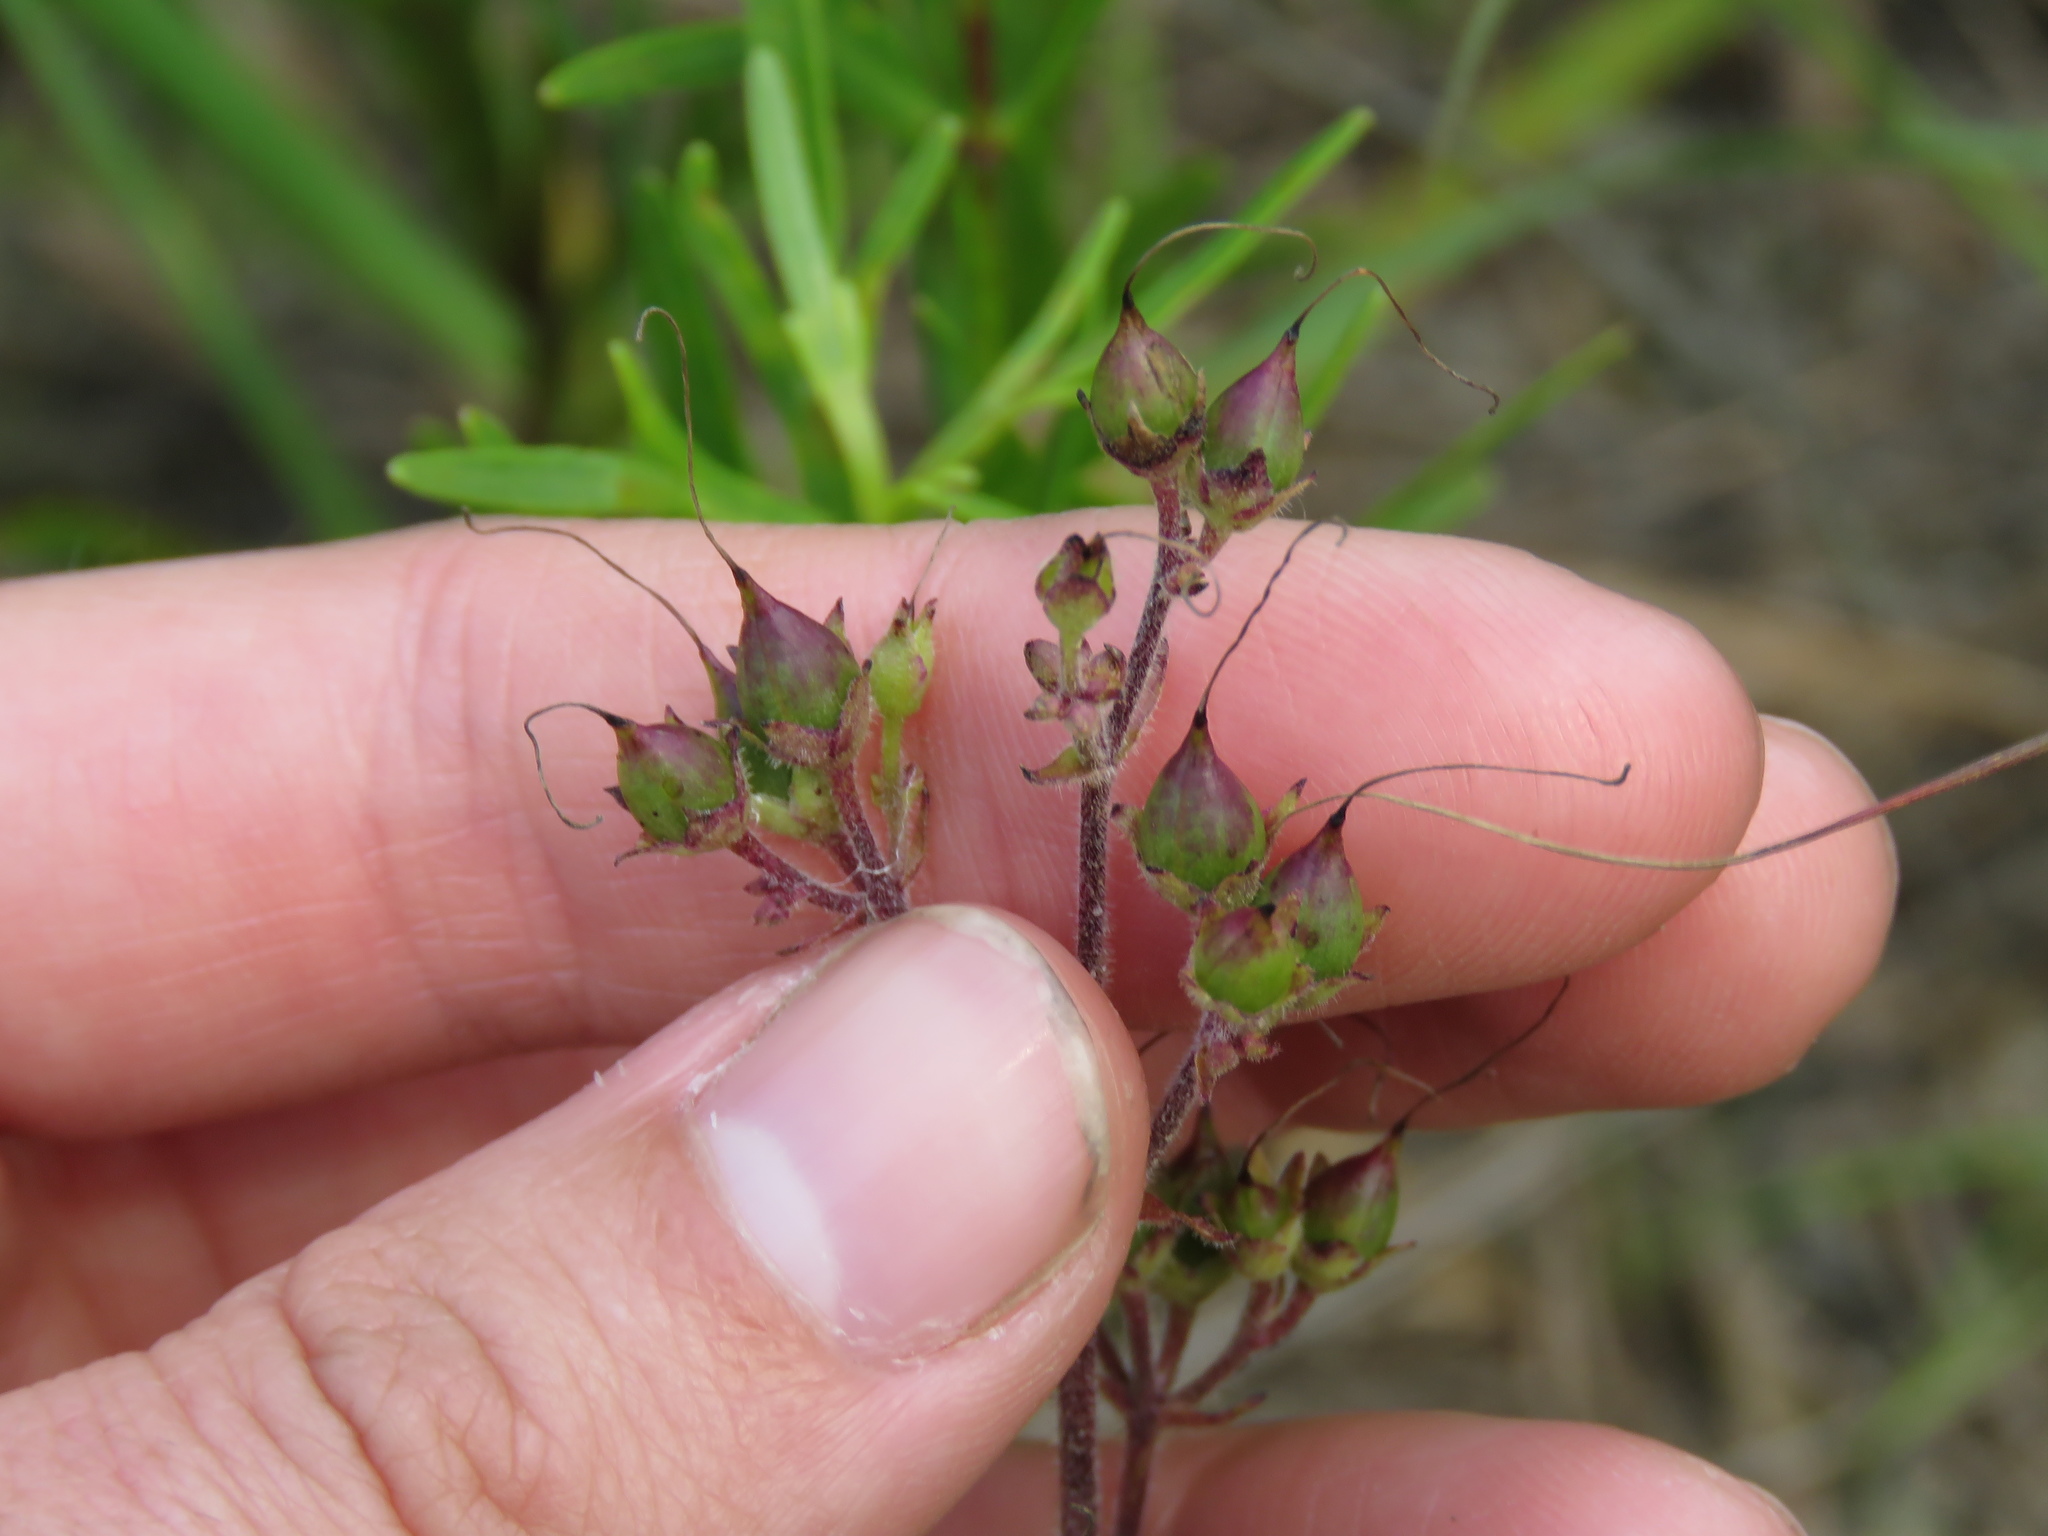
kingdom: Plantae
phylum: Tracheophyta
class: Magnoliopsida
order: Lamiales
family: Plantaginaceae
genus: Penstemon
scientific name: Penstemon hirsutus
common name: Hairy beardtongue
